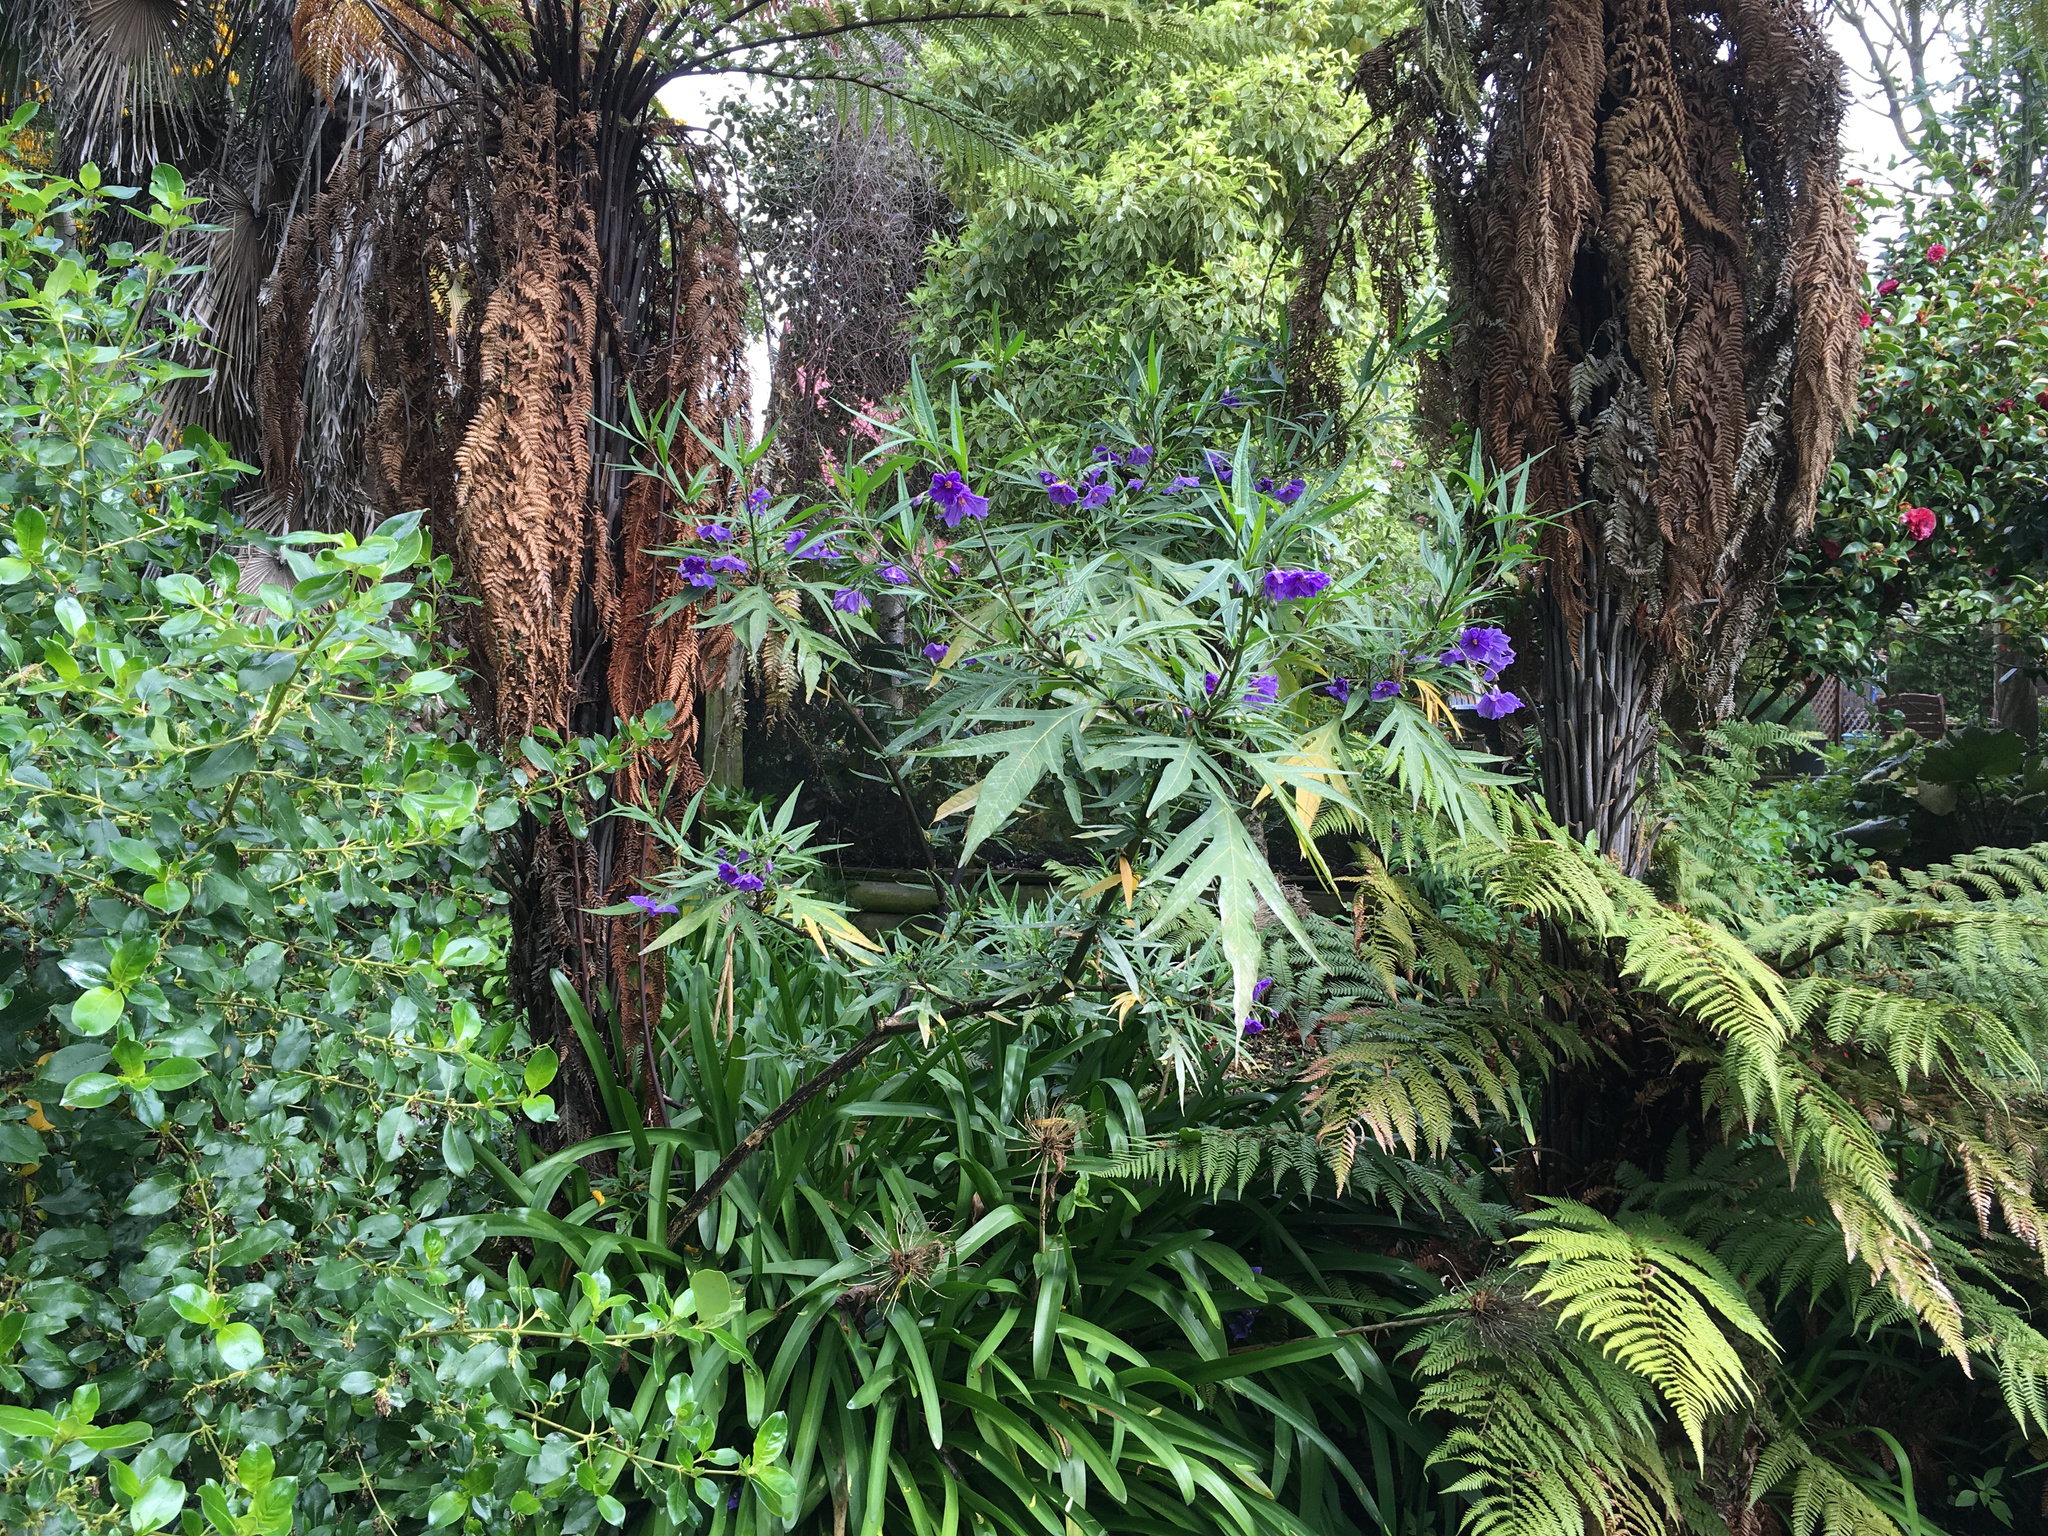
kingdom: Plantae
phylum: Tracheophyta
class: Magnoliopsida
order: Solanales
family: Solanaceae
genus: Solanum
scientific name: Solanum laciniatum
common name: Kangaroo-apple
